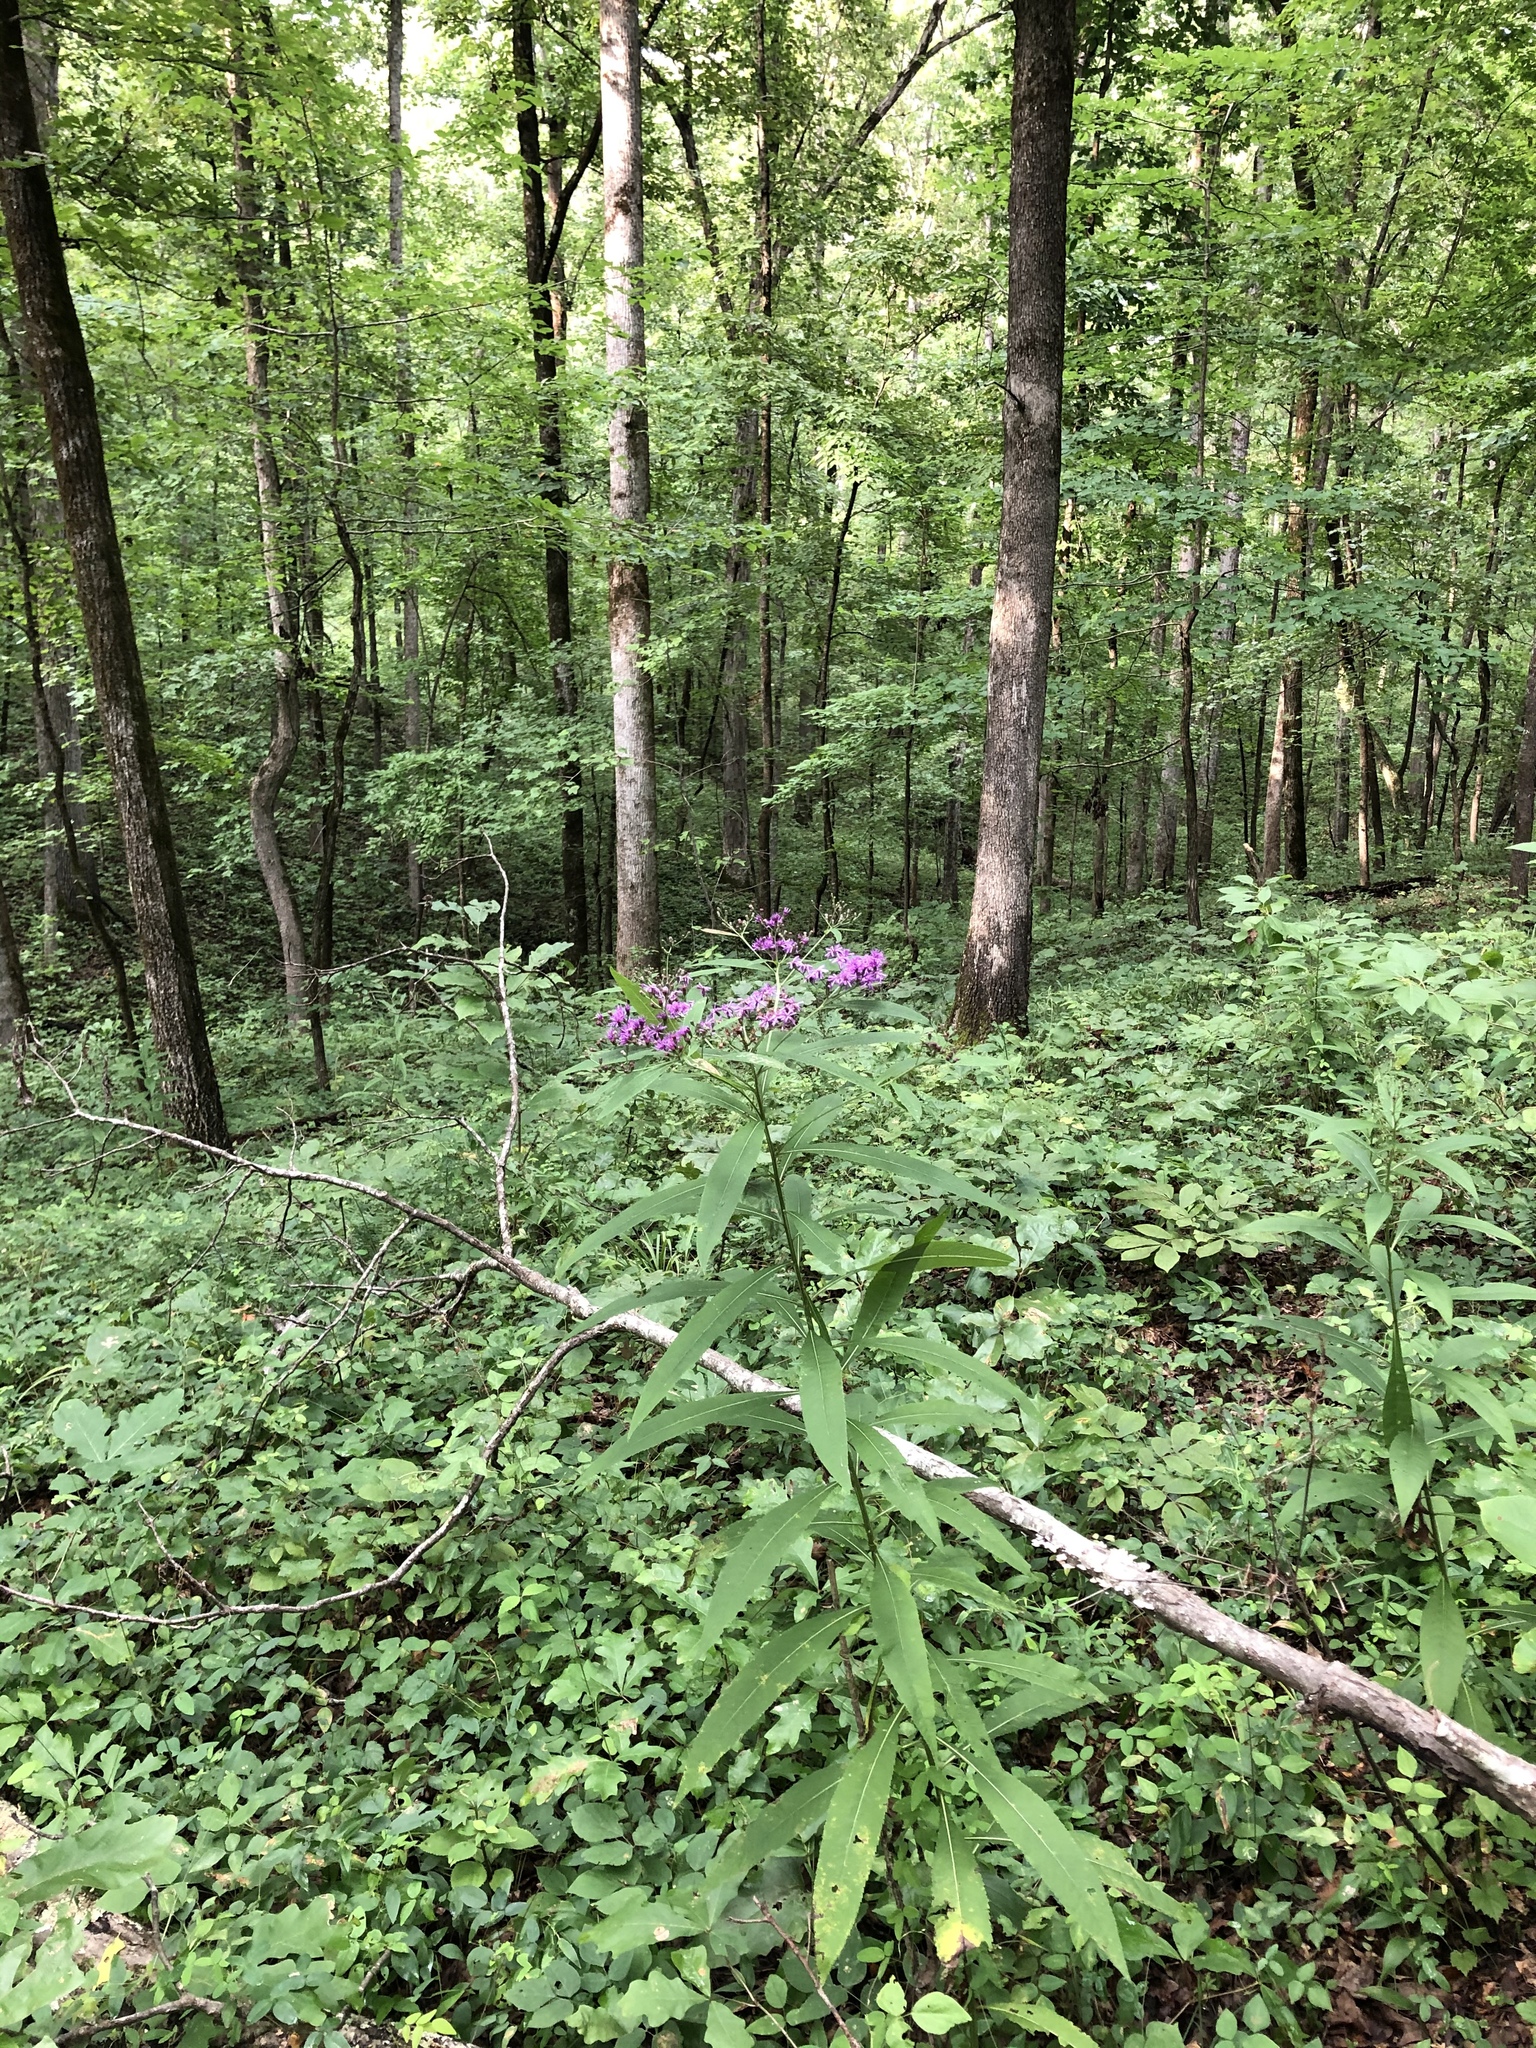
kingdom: Plantae
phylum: Tracheophyta
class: Magnoliopsida
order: Asterales
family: Asteraceae
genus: Vernonia
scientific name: Vernonia gigantea
